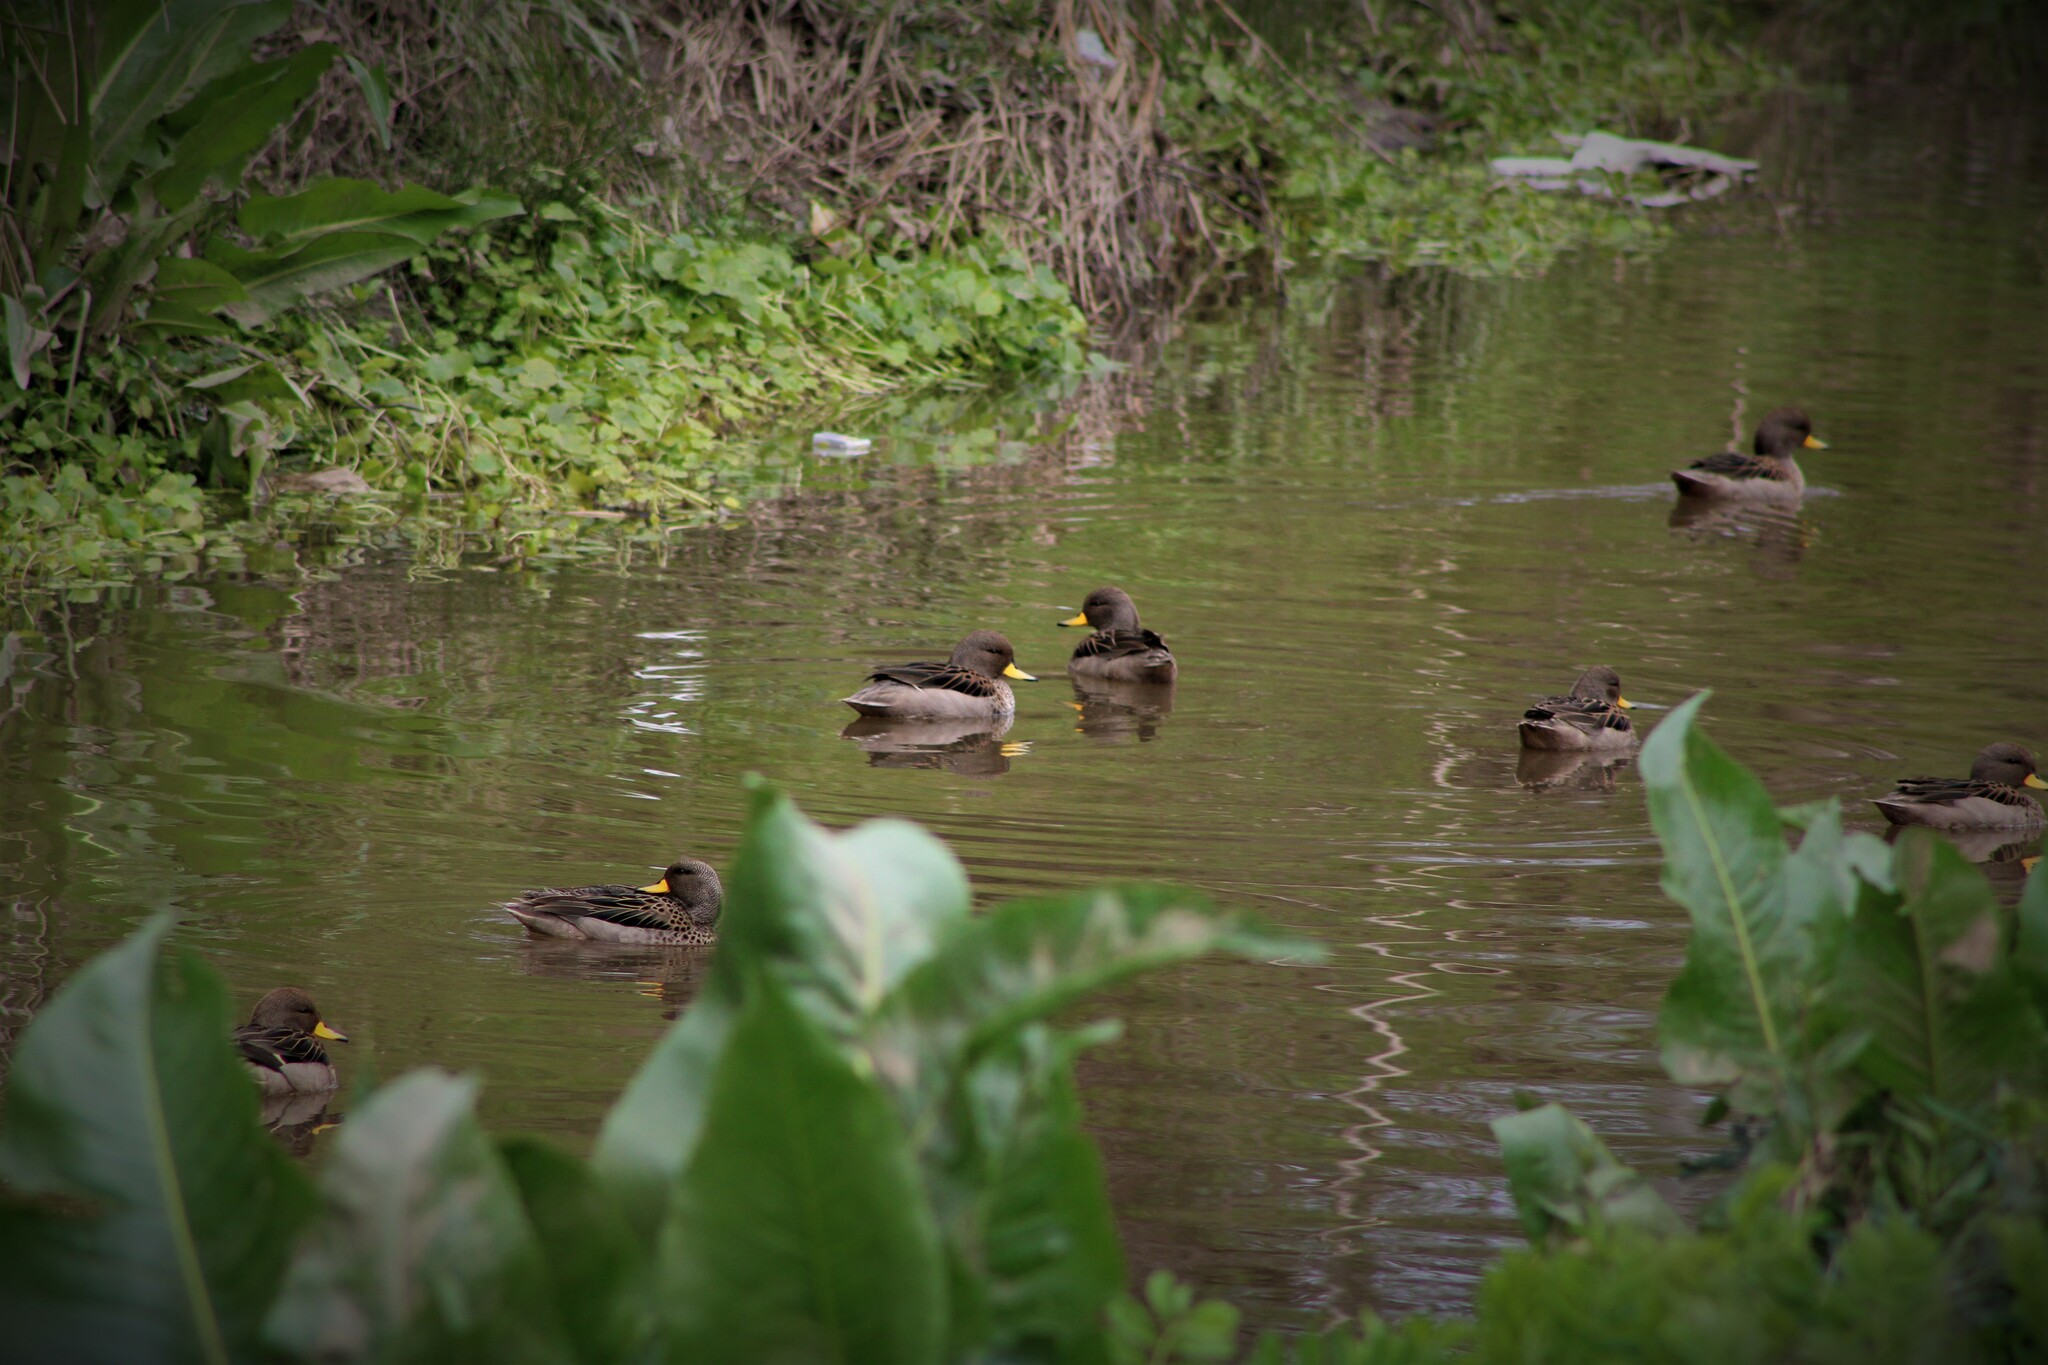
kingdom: Animalia
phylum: Chordata
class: Aves
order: Anseriformes
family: Anatidae
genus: Anas
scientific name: Anas flavirostris
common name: Yellow-billed teal
